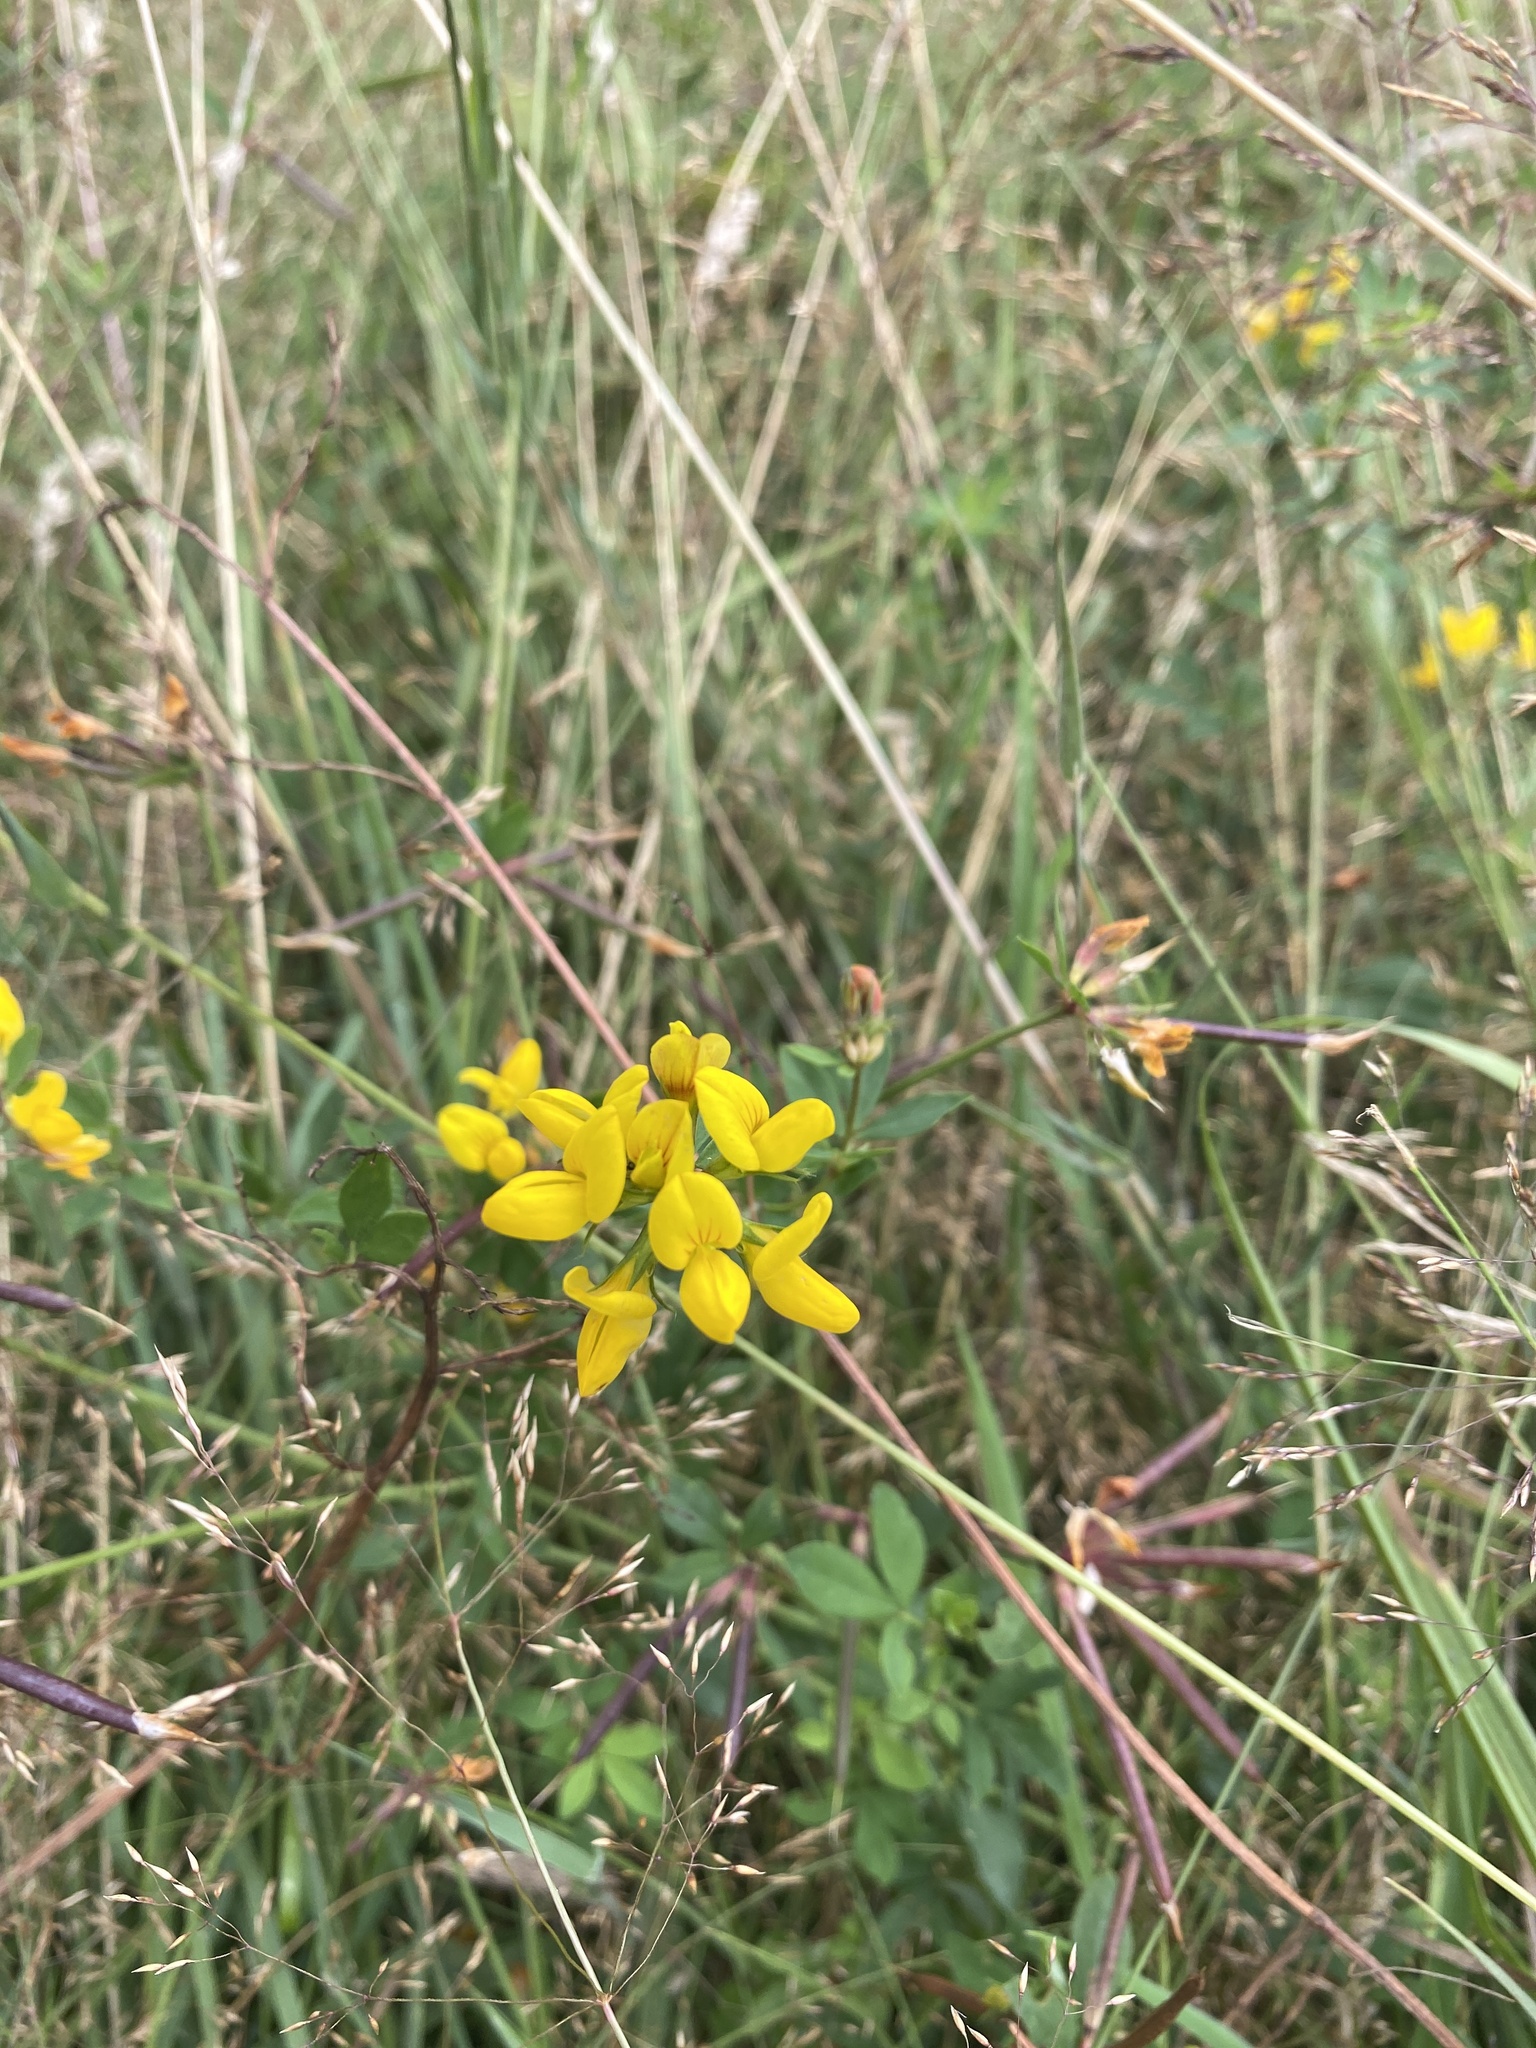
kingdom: Plantae
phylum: Tracheophyta
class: Magnoliopsida
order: Fabales
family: Fabaceae
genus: Lotus
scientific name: Lotus corniculatus
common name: Common bird's-foot-trefoil
